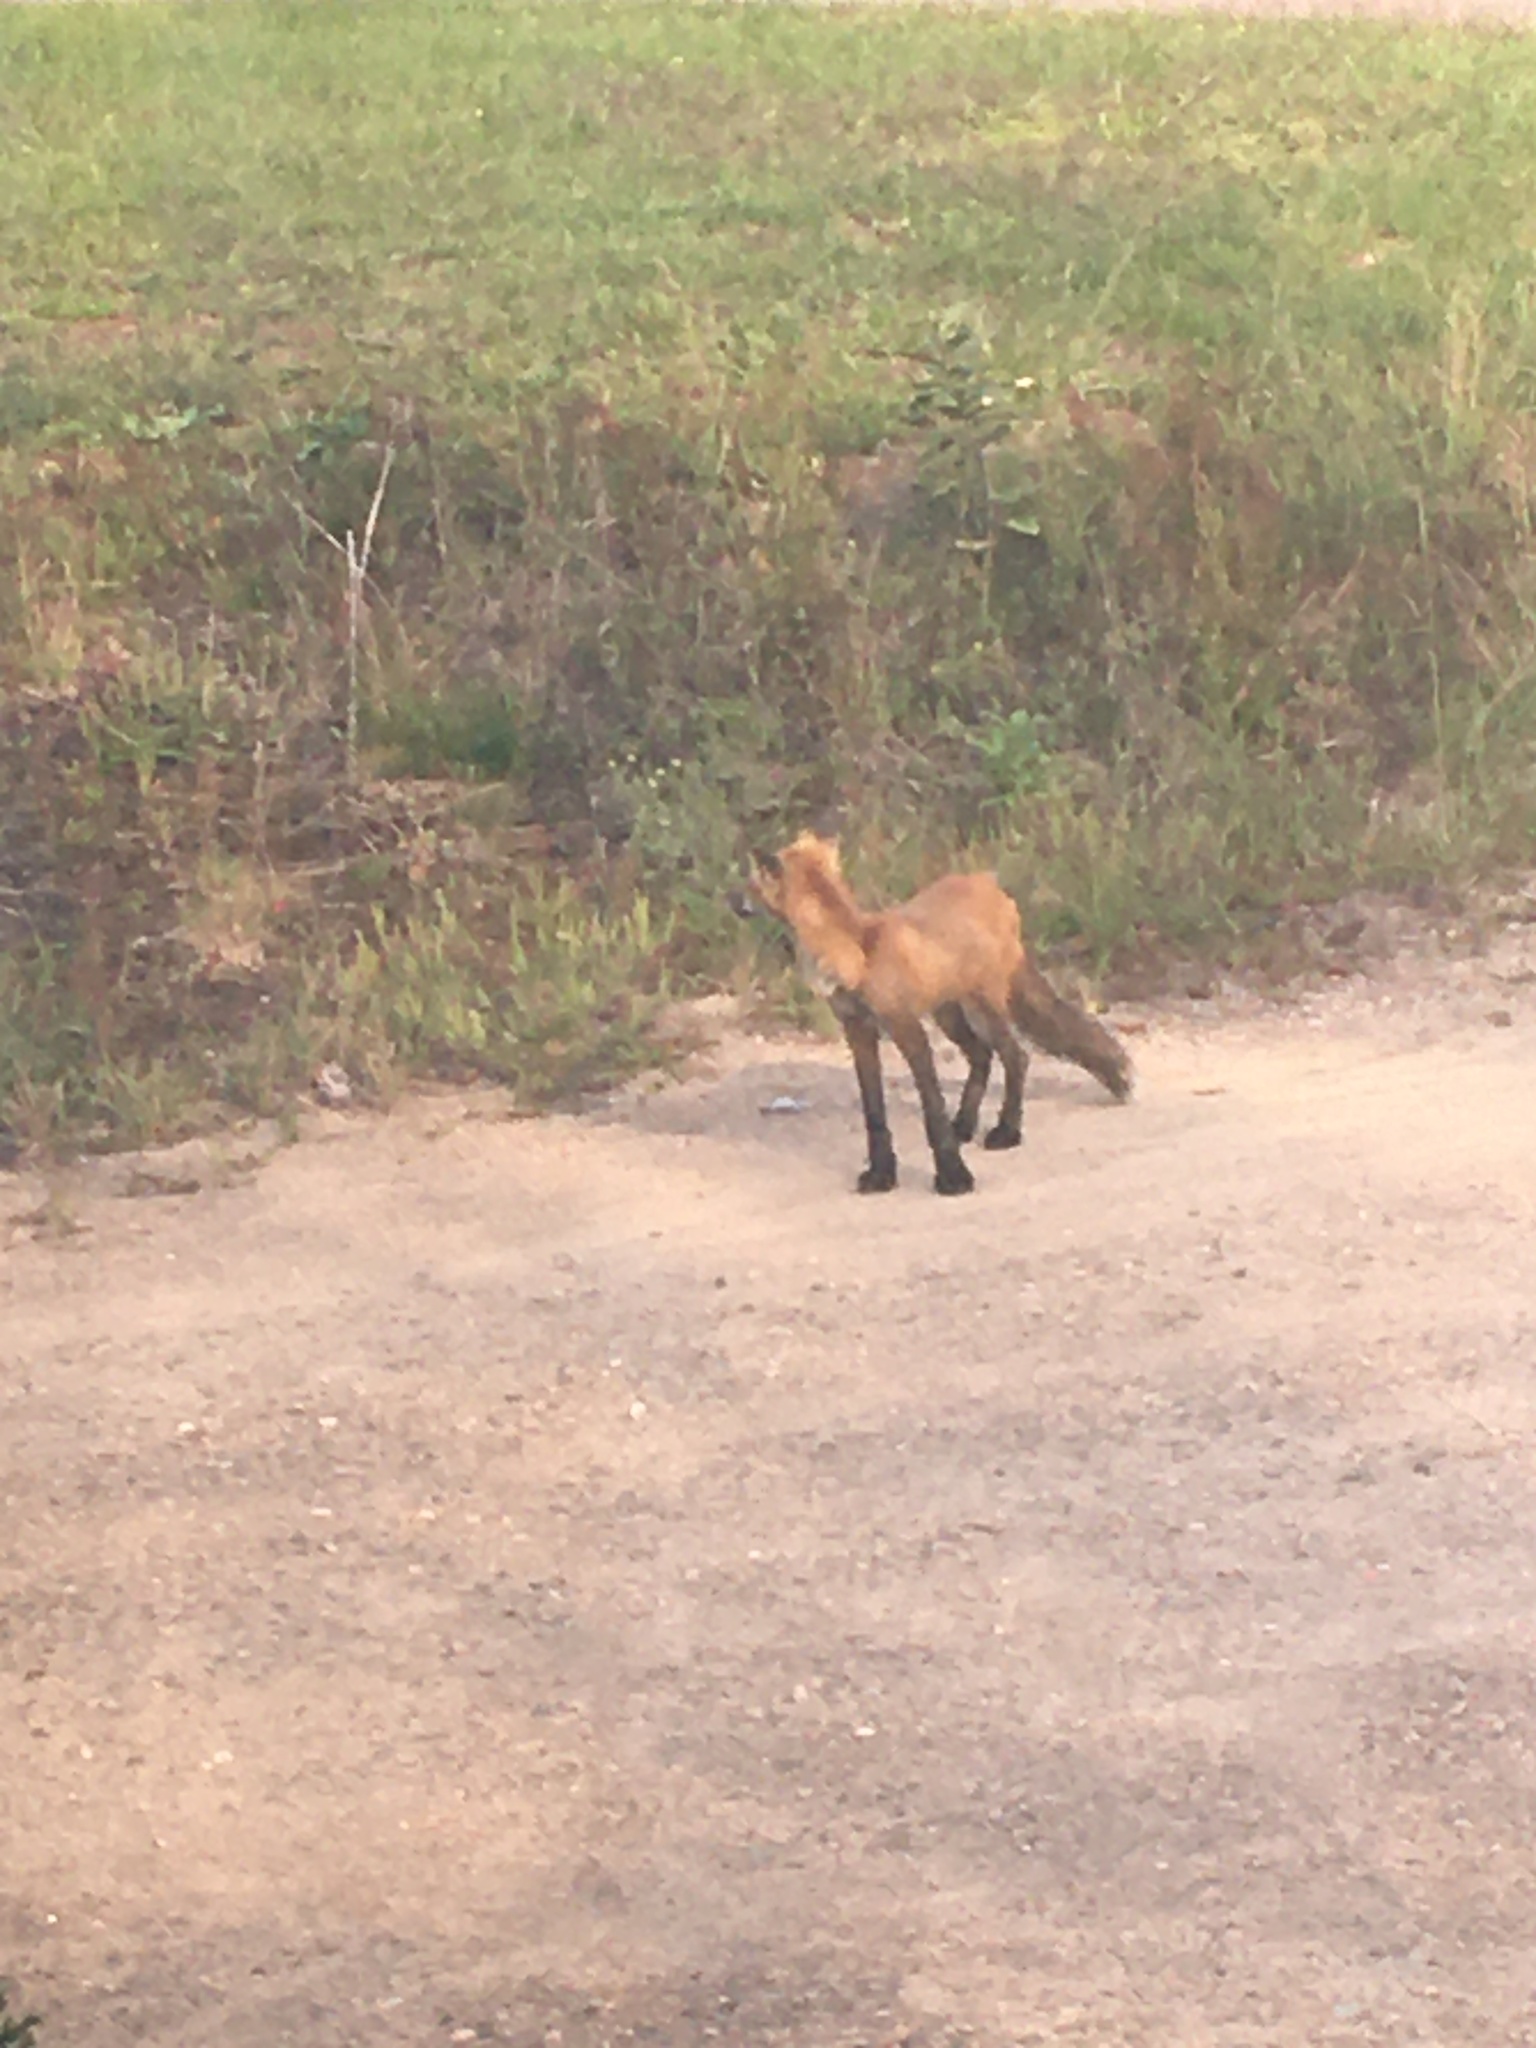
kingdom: Animalia
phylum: Chordata
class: Mammalia
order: Carnivora
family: Canidae
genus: Vulpes
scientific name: Vulpes vulpes
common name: Red fox
